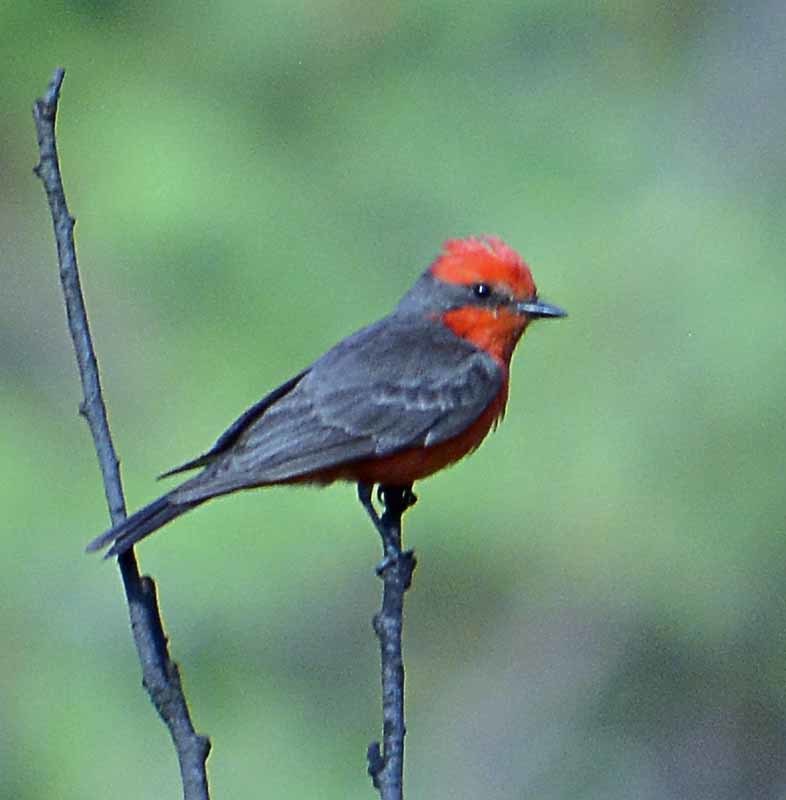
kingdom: Animalia
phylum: Chordata
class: Aves
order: Passeriformes
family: Tyrannidae
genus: Pyrocephalus
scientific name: Pyrocephalus rubinus
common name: Vermilion flycatcher
